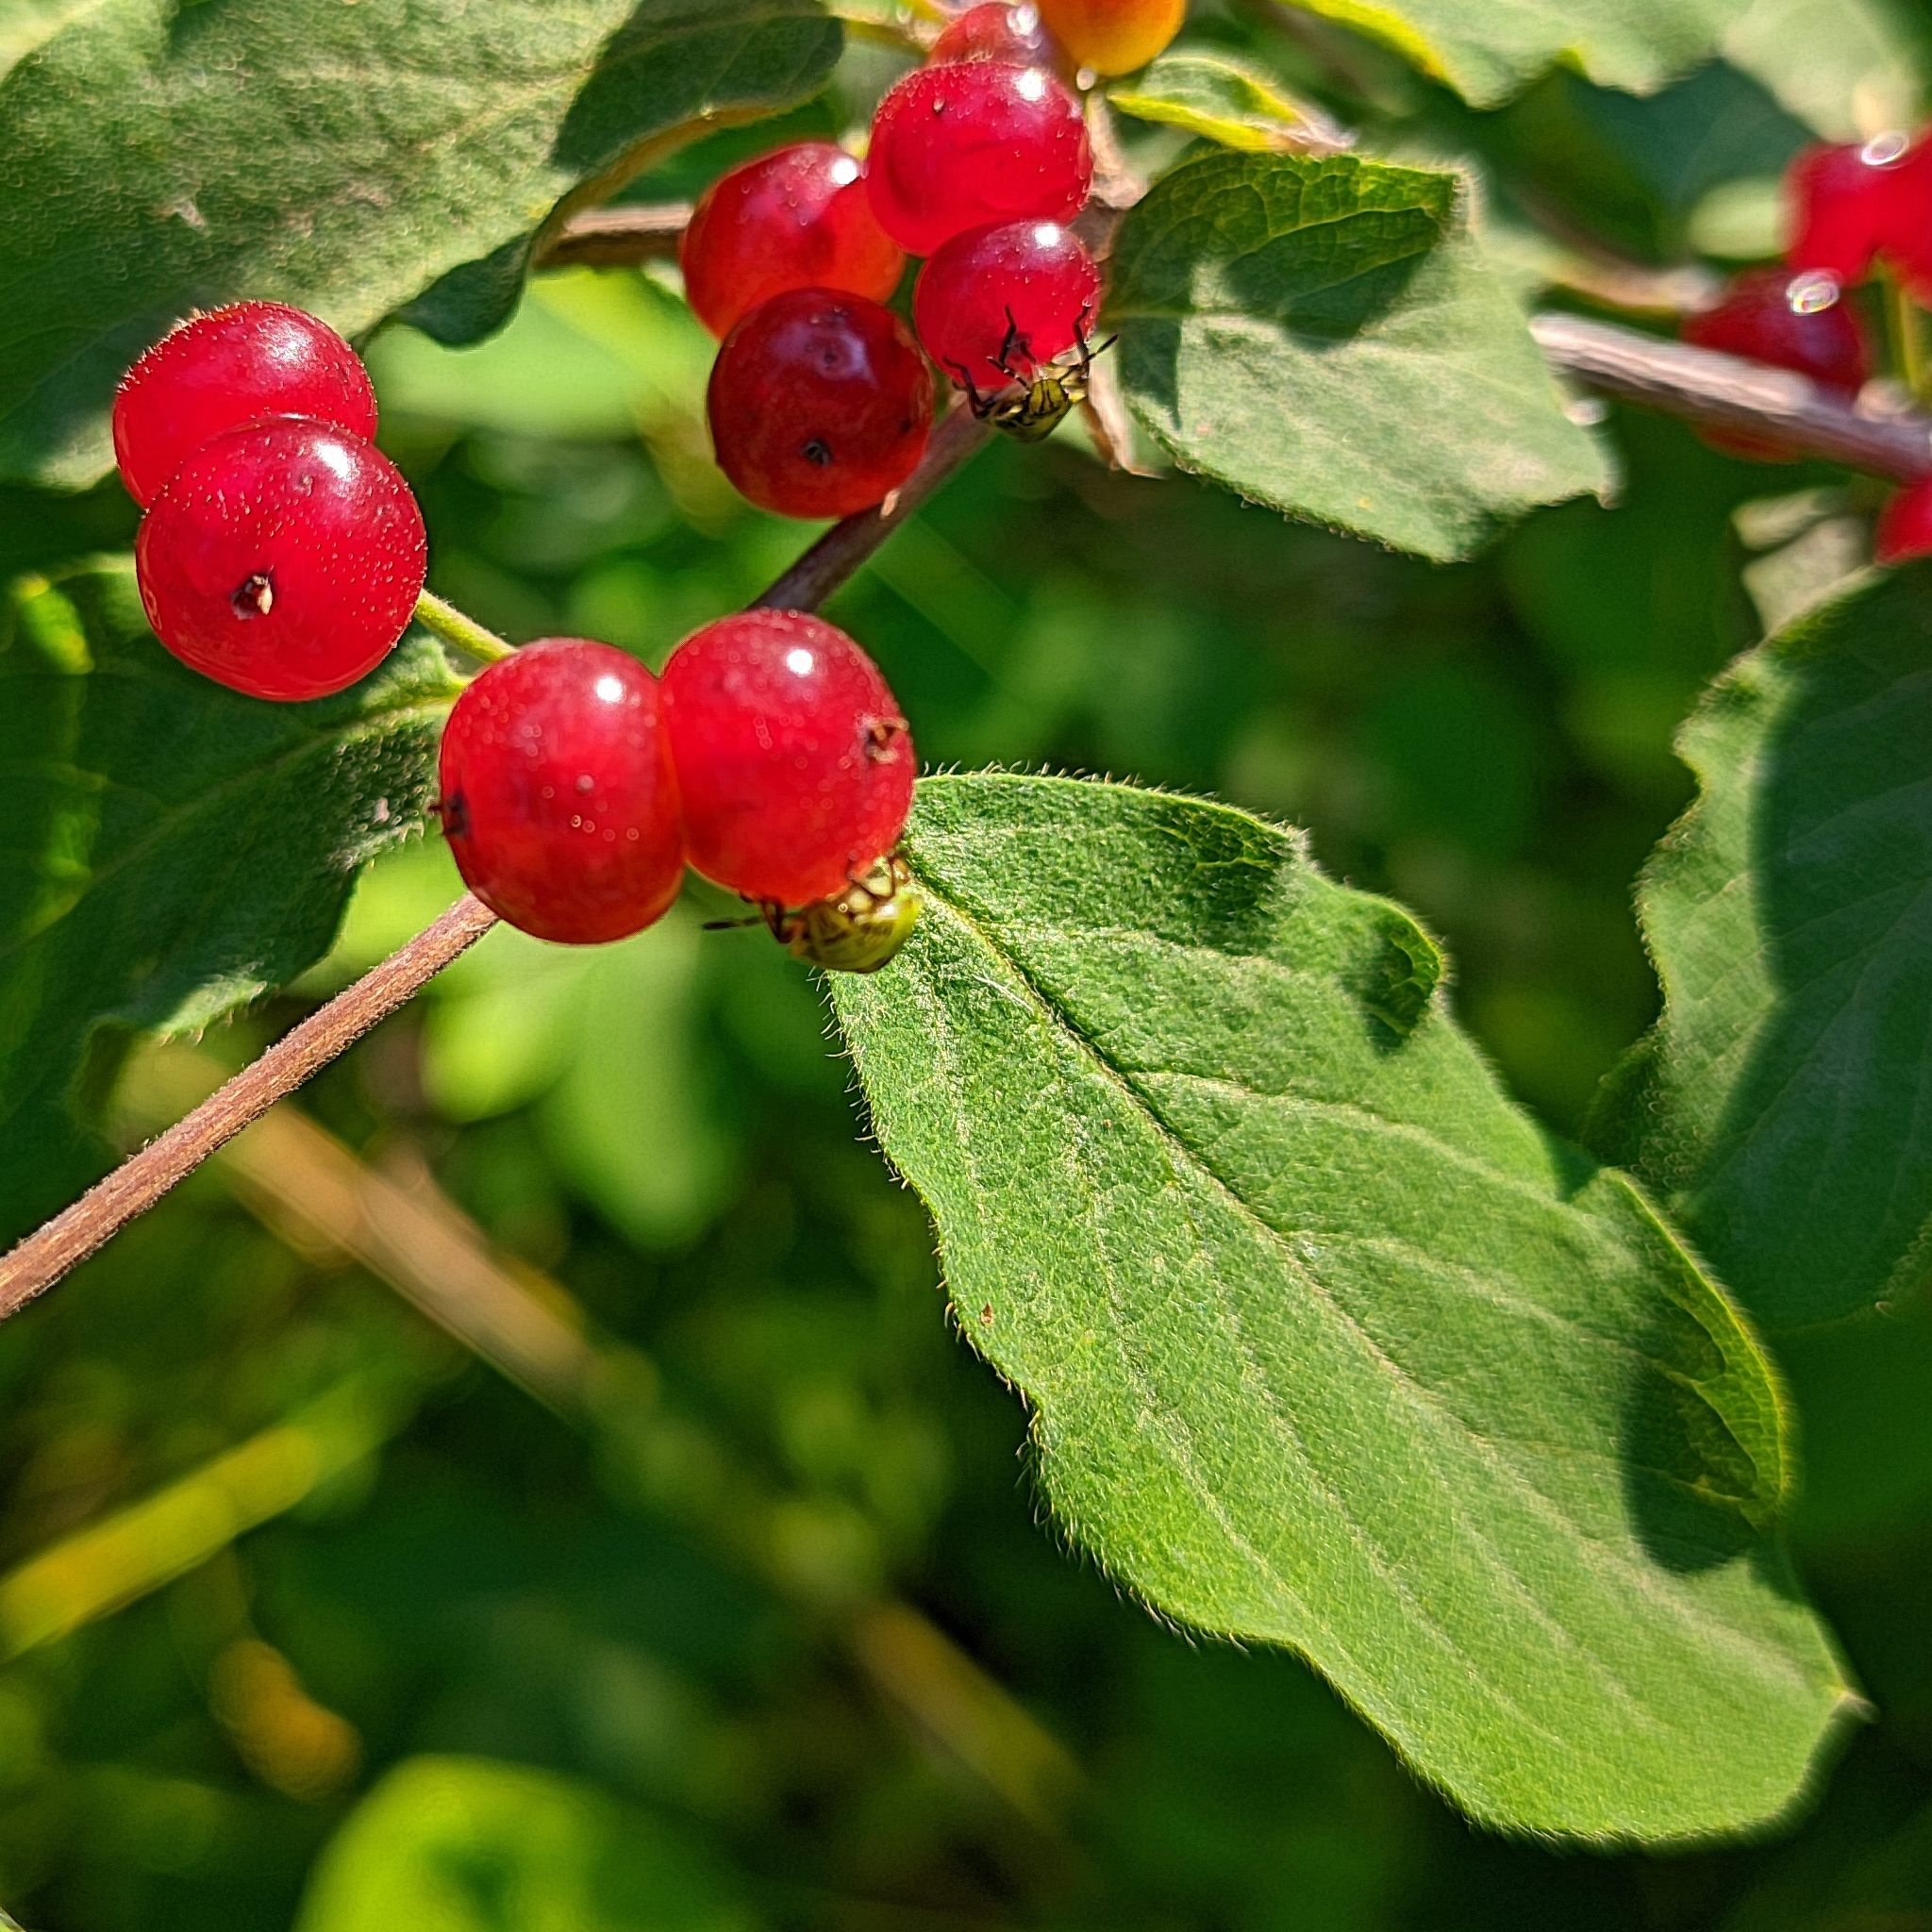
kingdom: Plantae
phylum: Tracheophyta
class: Magnoliopsida
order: Dipsacales
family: Caprifoliaceae
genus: Lonicera
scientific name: Lonicera xylosteum
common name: Fly honeysuckle
